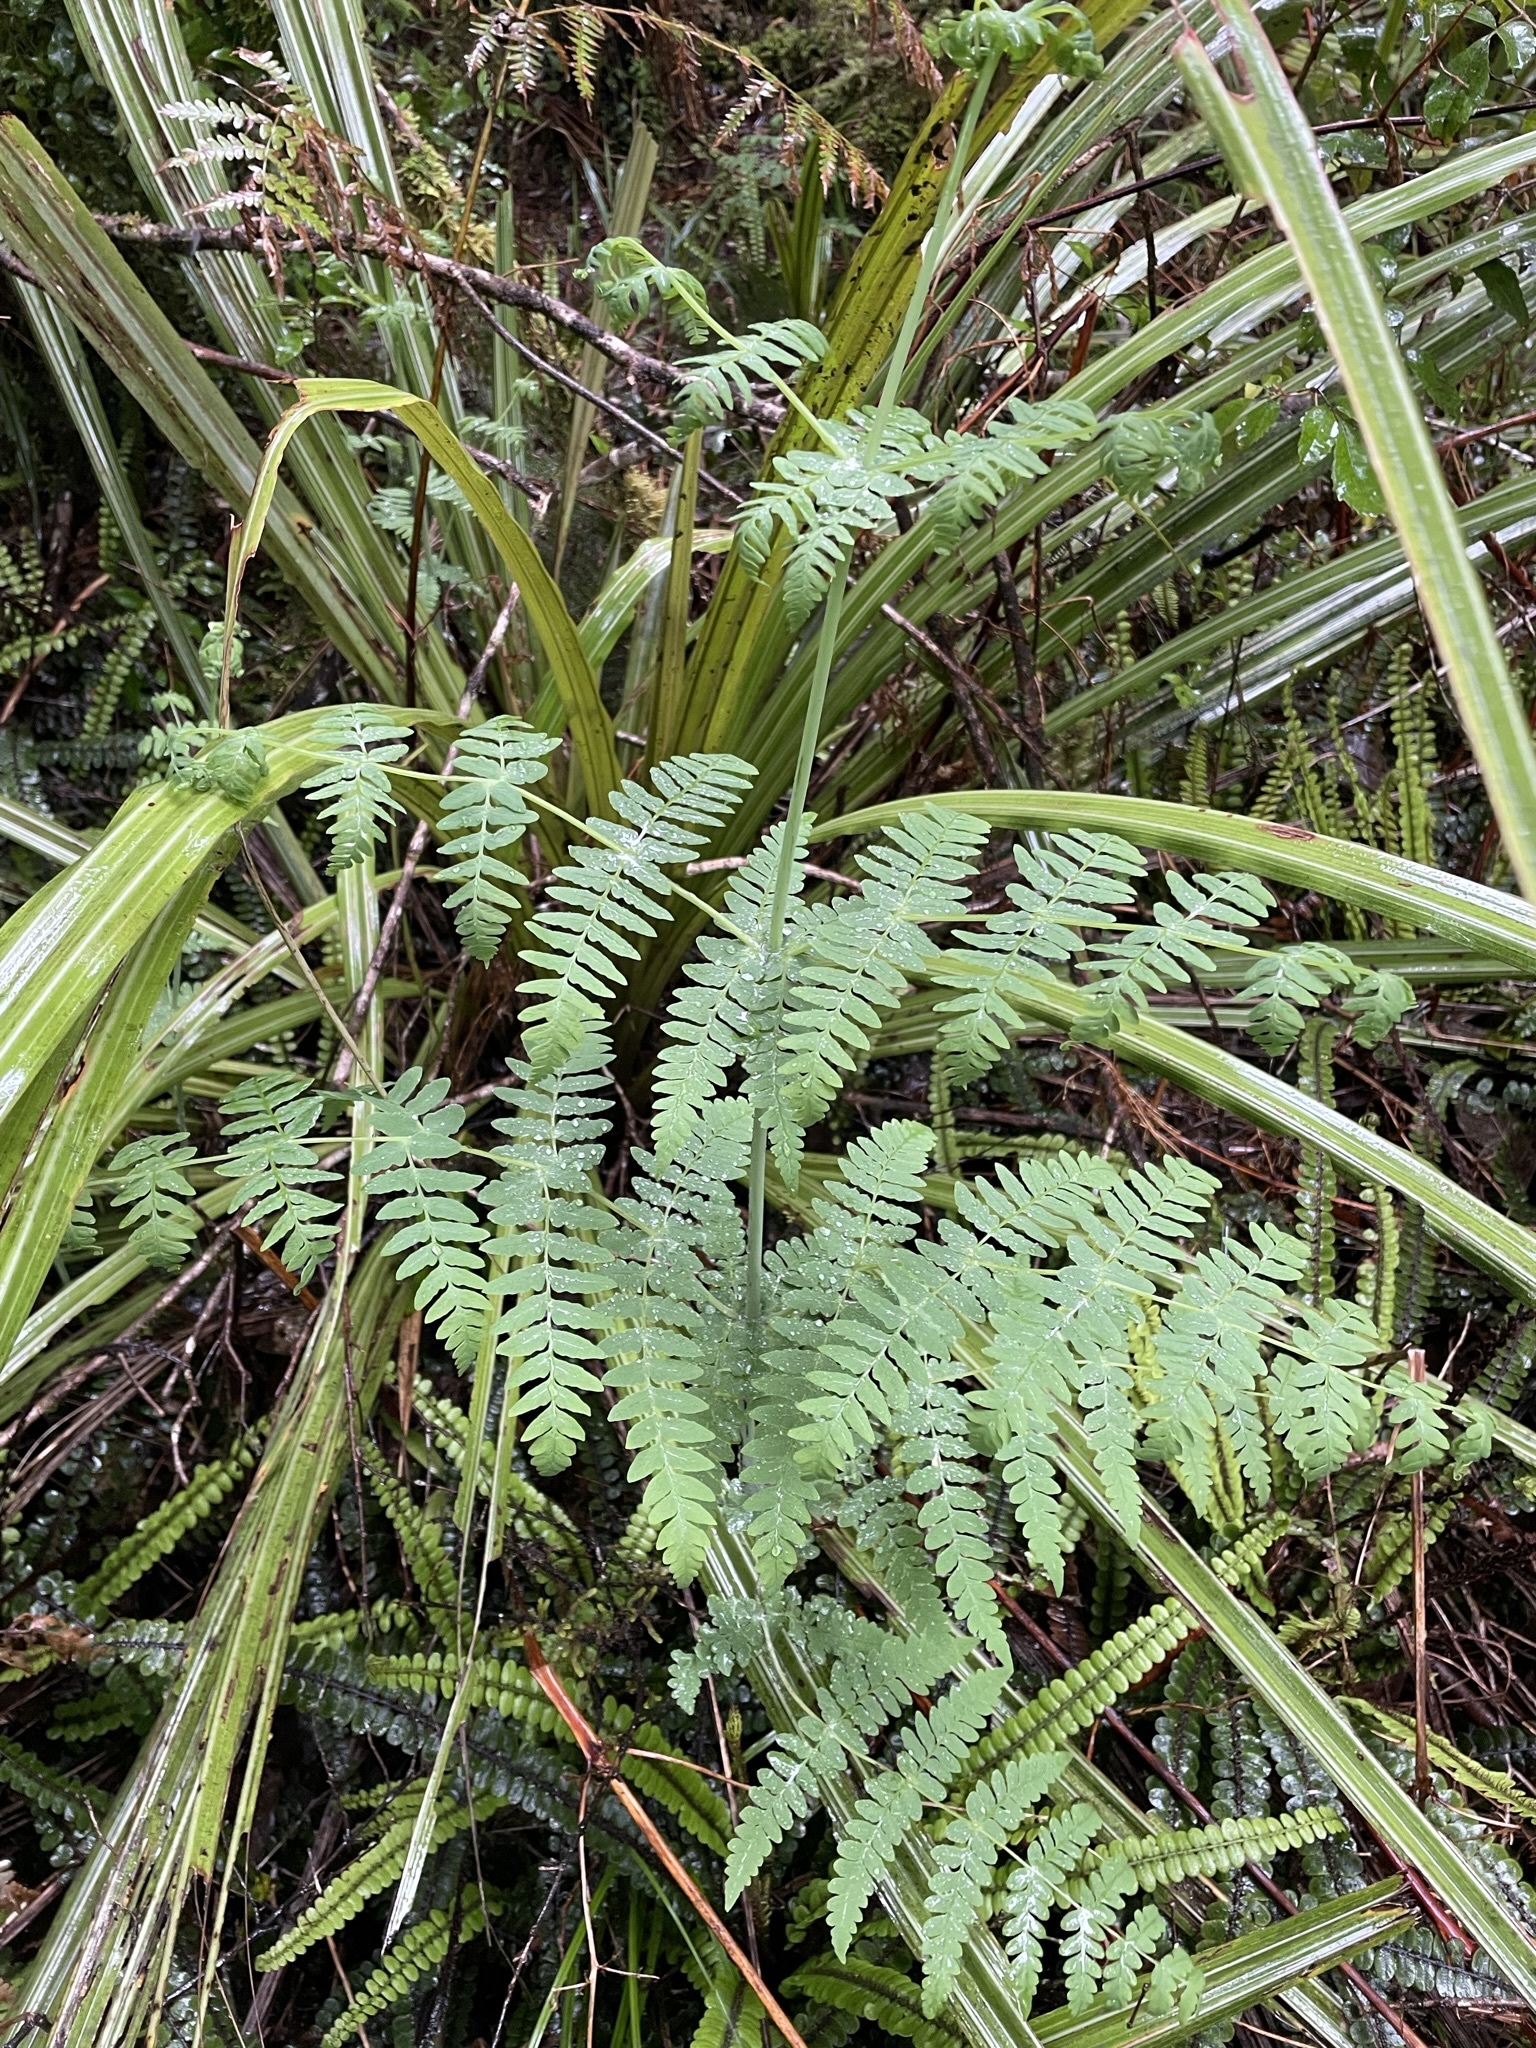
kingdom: Plantae
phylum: Tracheophyta
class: Polypodiopsida
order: Polypodiales
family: Dennstaedtiaceae
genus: Histiopteris
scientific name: Histiopteris incisa
